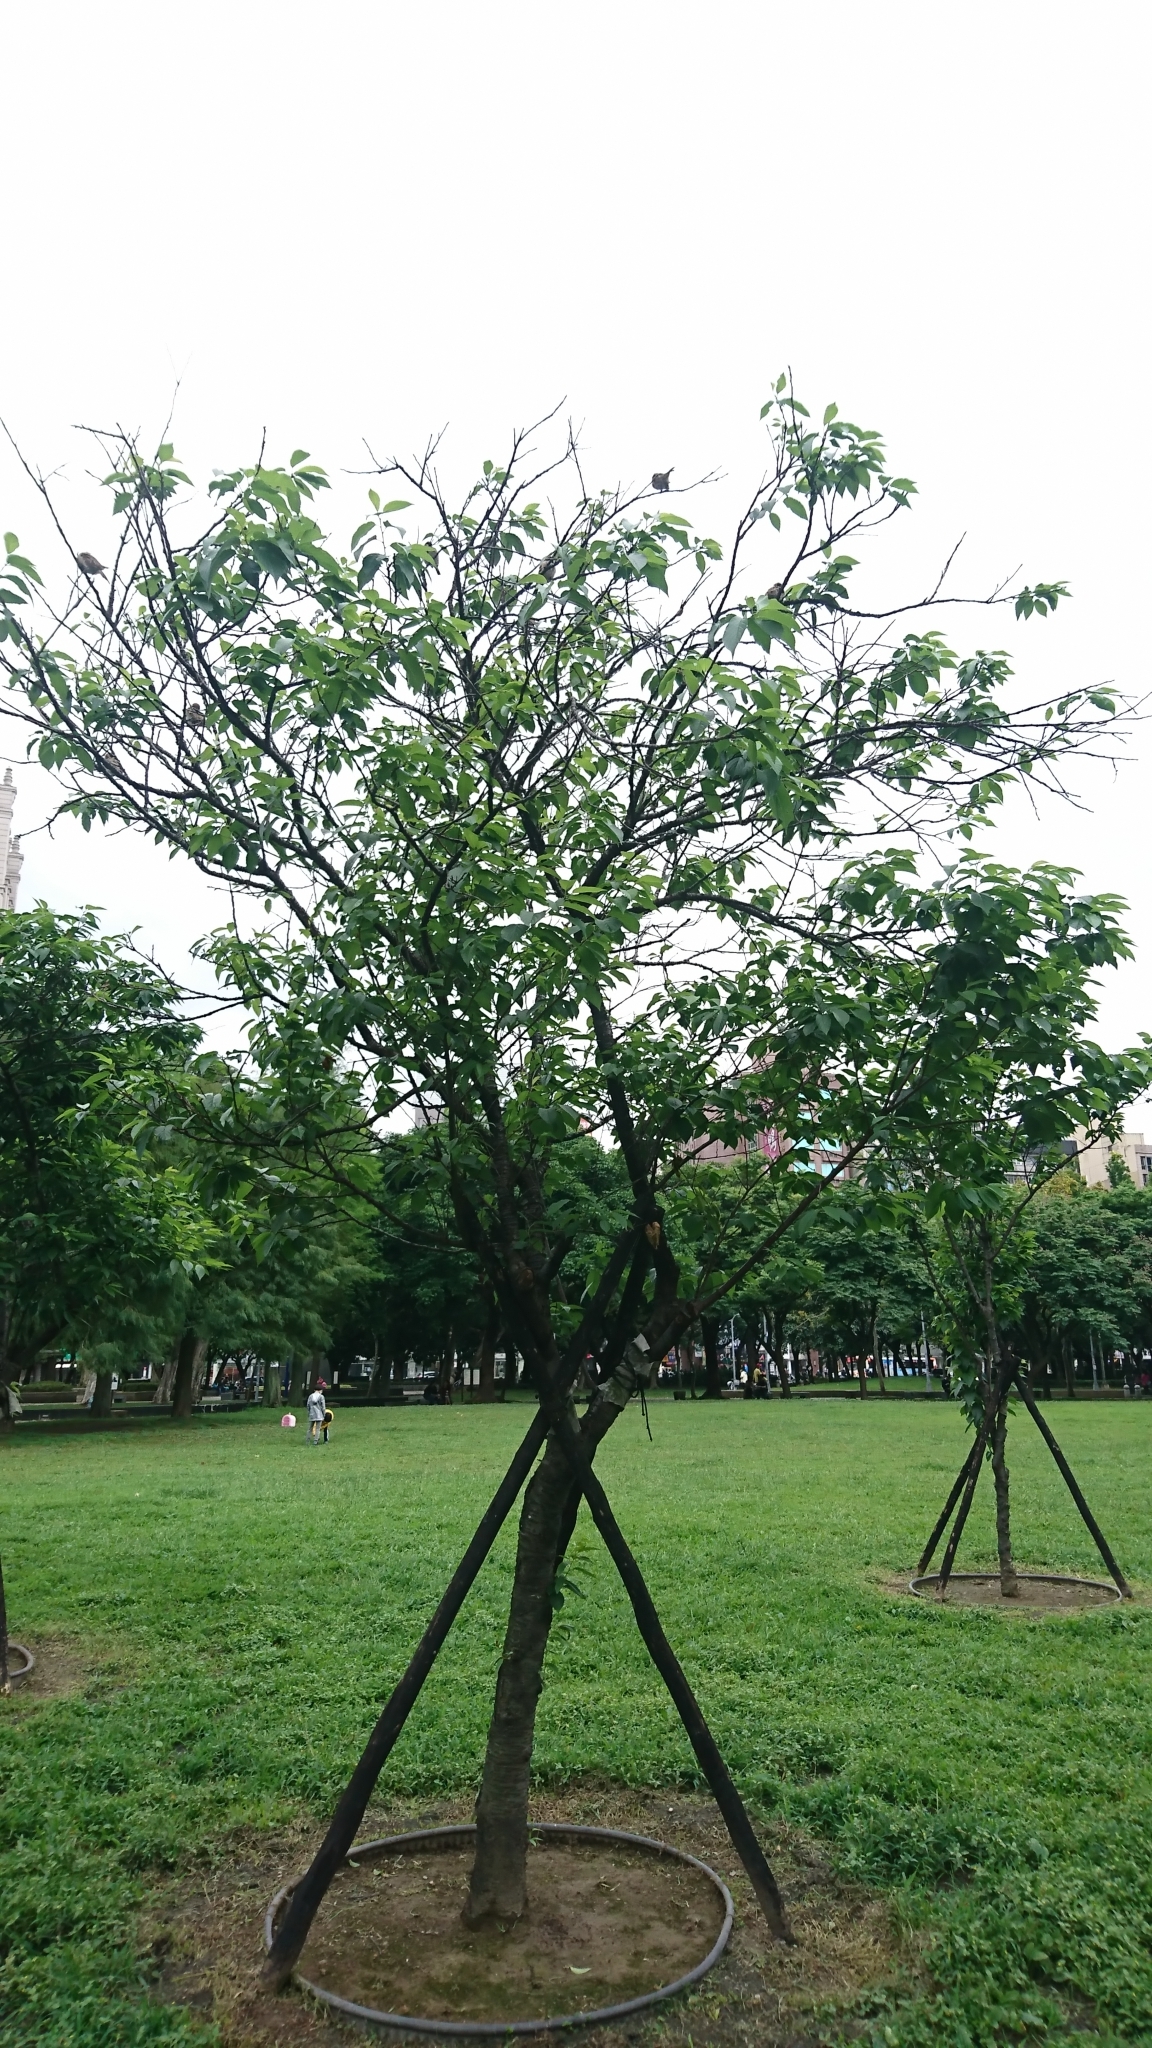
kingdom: Animalia
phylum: Chordata
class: Aves
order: Passeriformes
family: Passeridae
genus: Passer
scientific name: Passer montanus
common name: Eurasian tree sparrow
